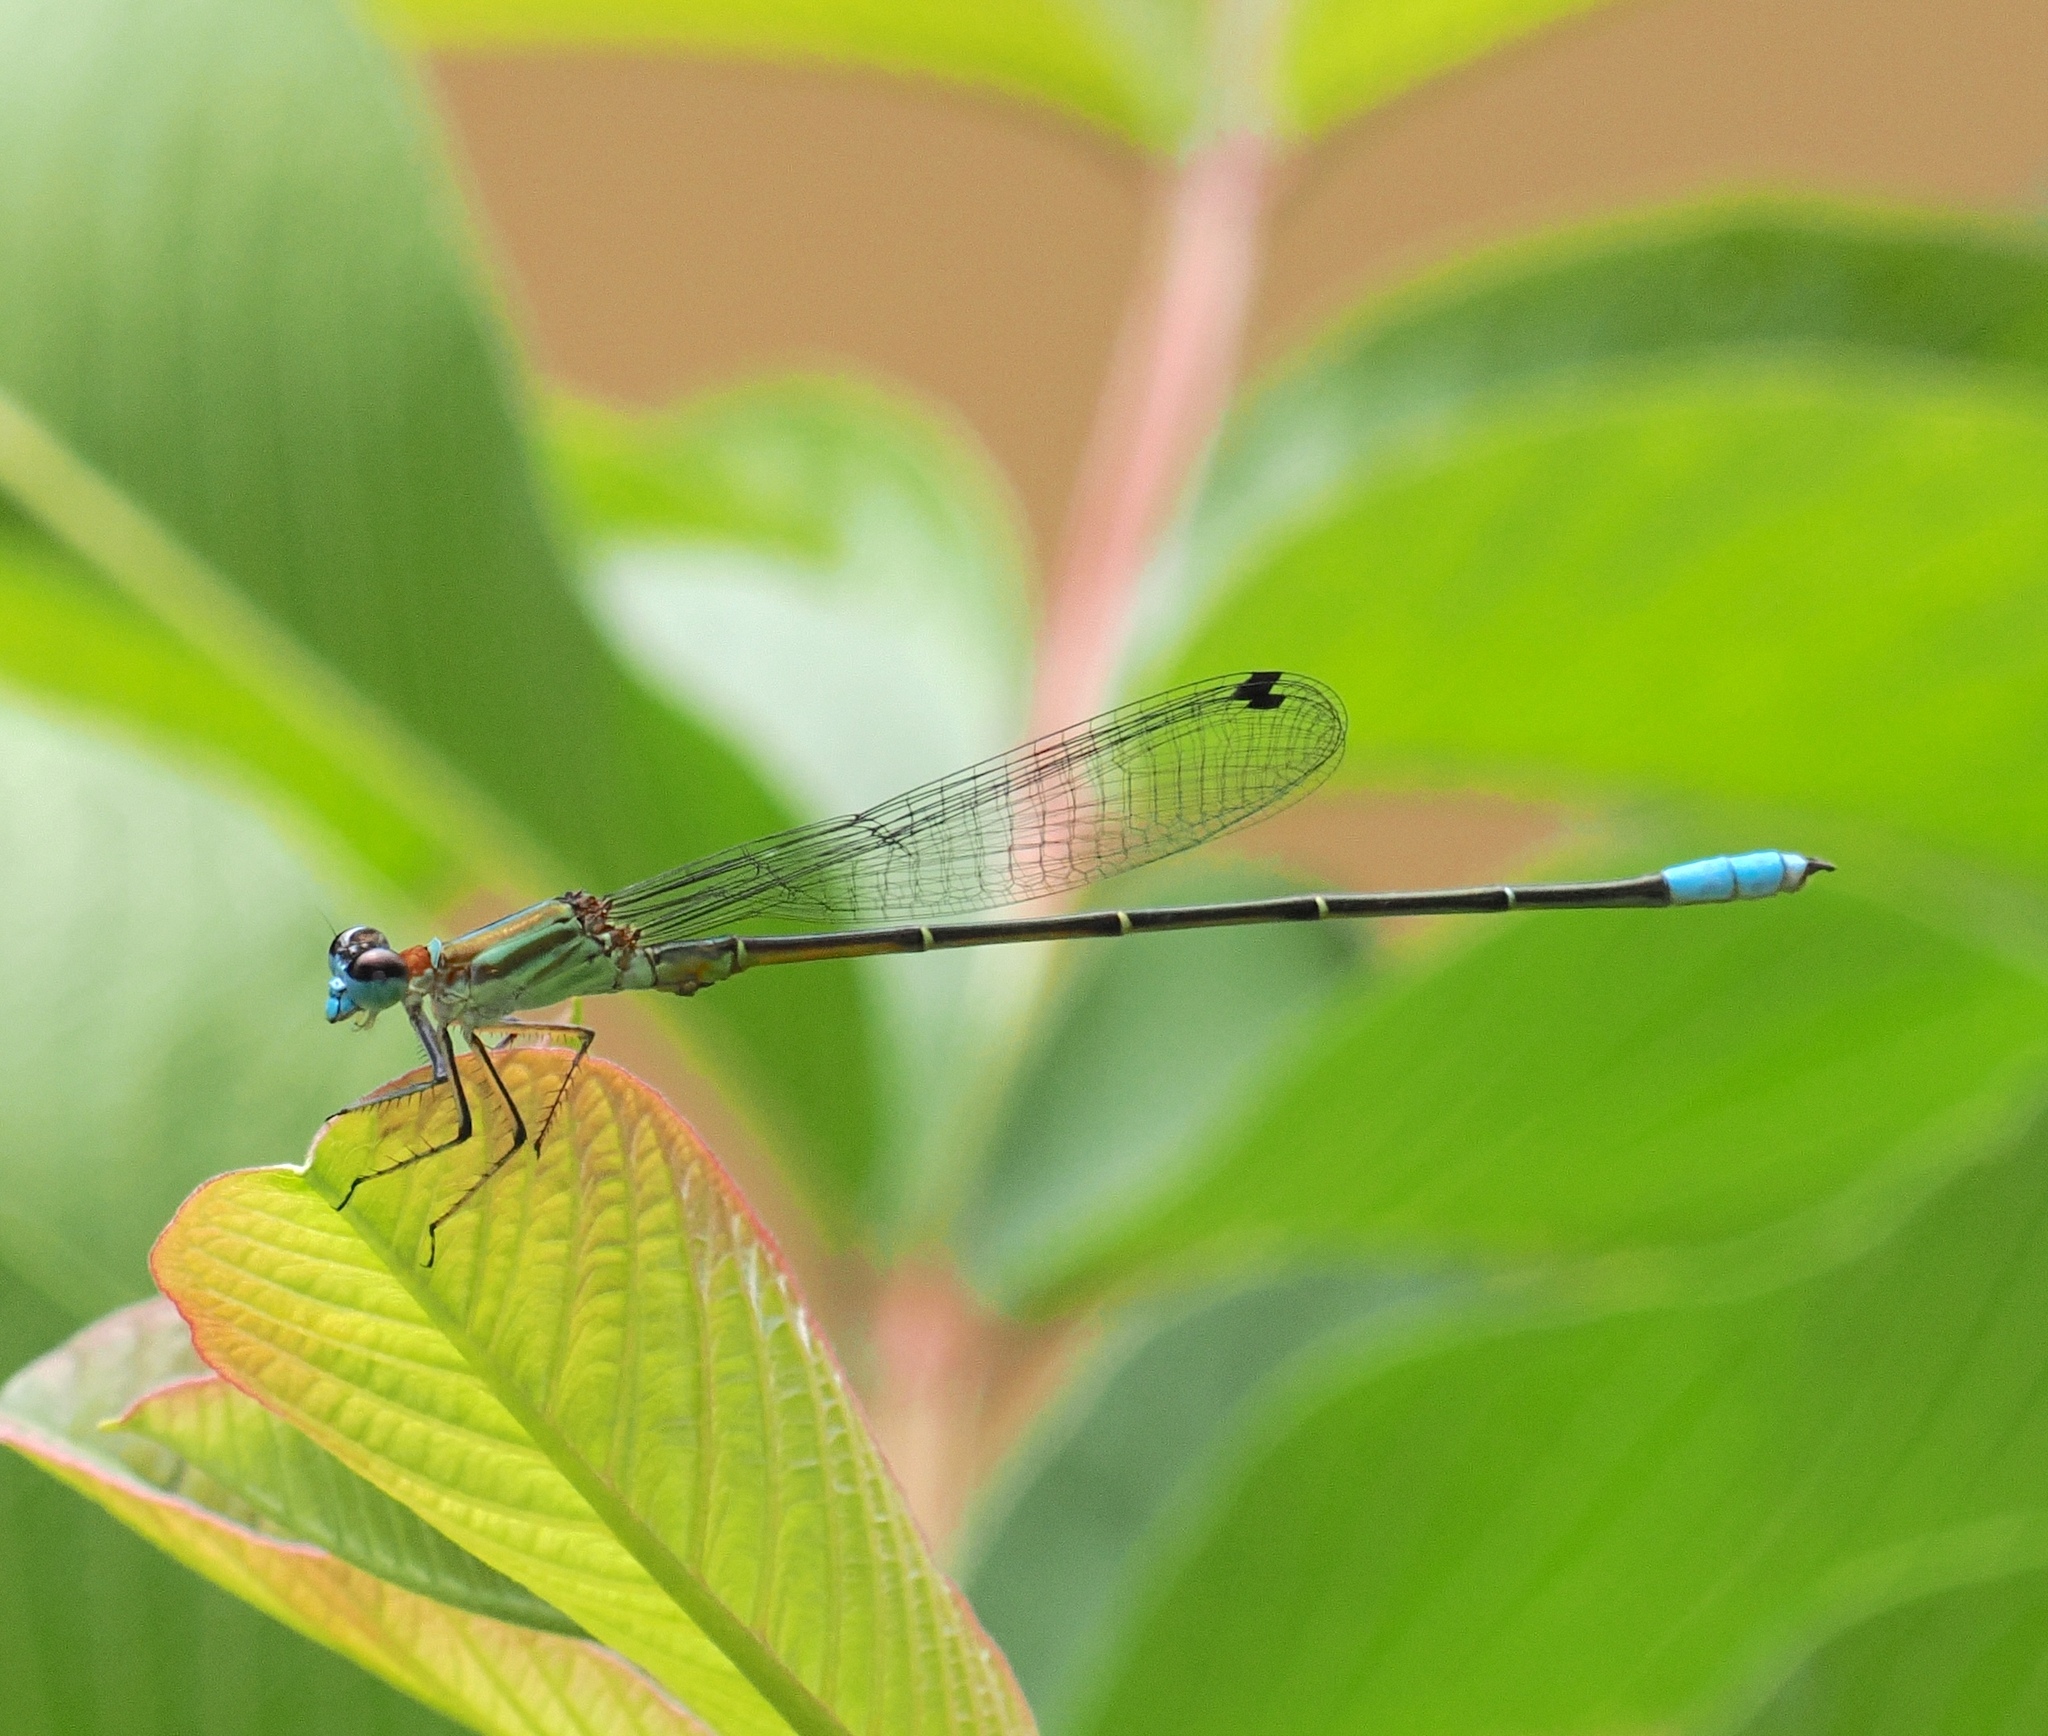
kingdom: Animalia
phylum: Arthropoda
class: Insecta
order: Odonata
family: Coenagrionidae
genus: Fredyagrion
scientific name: Fredyagrion elongatum
